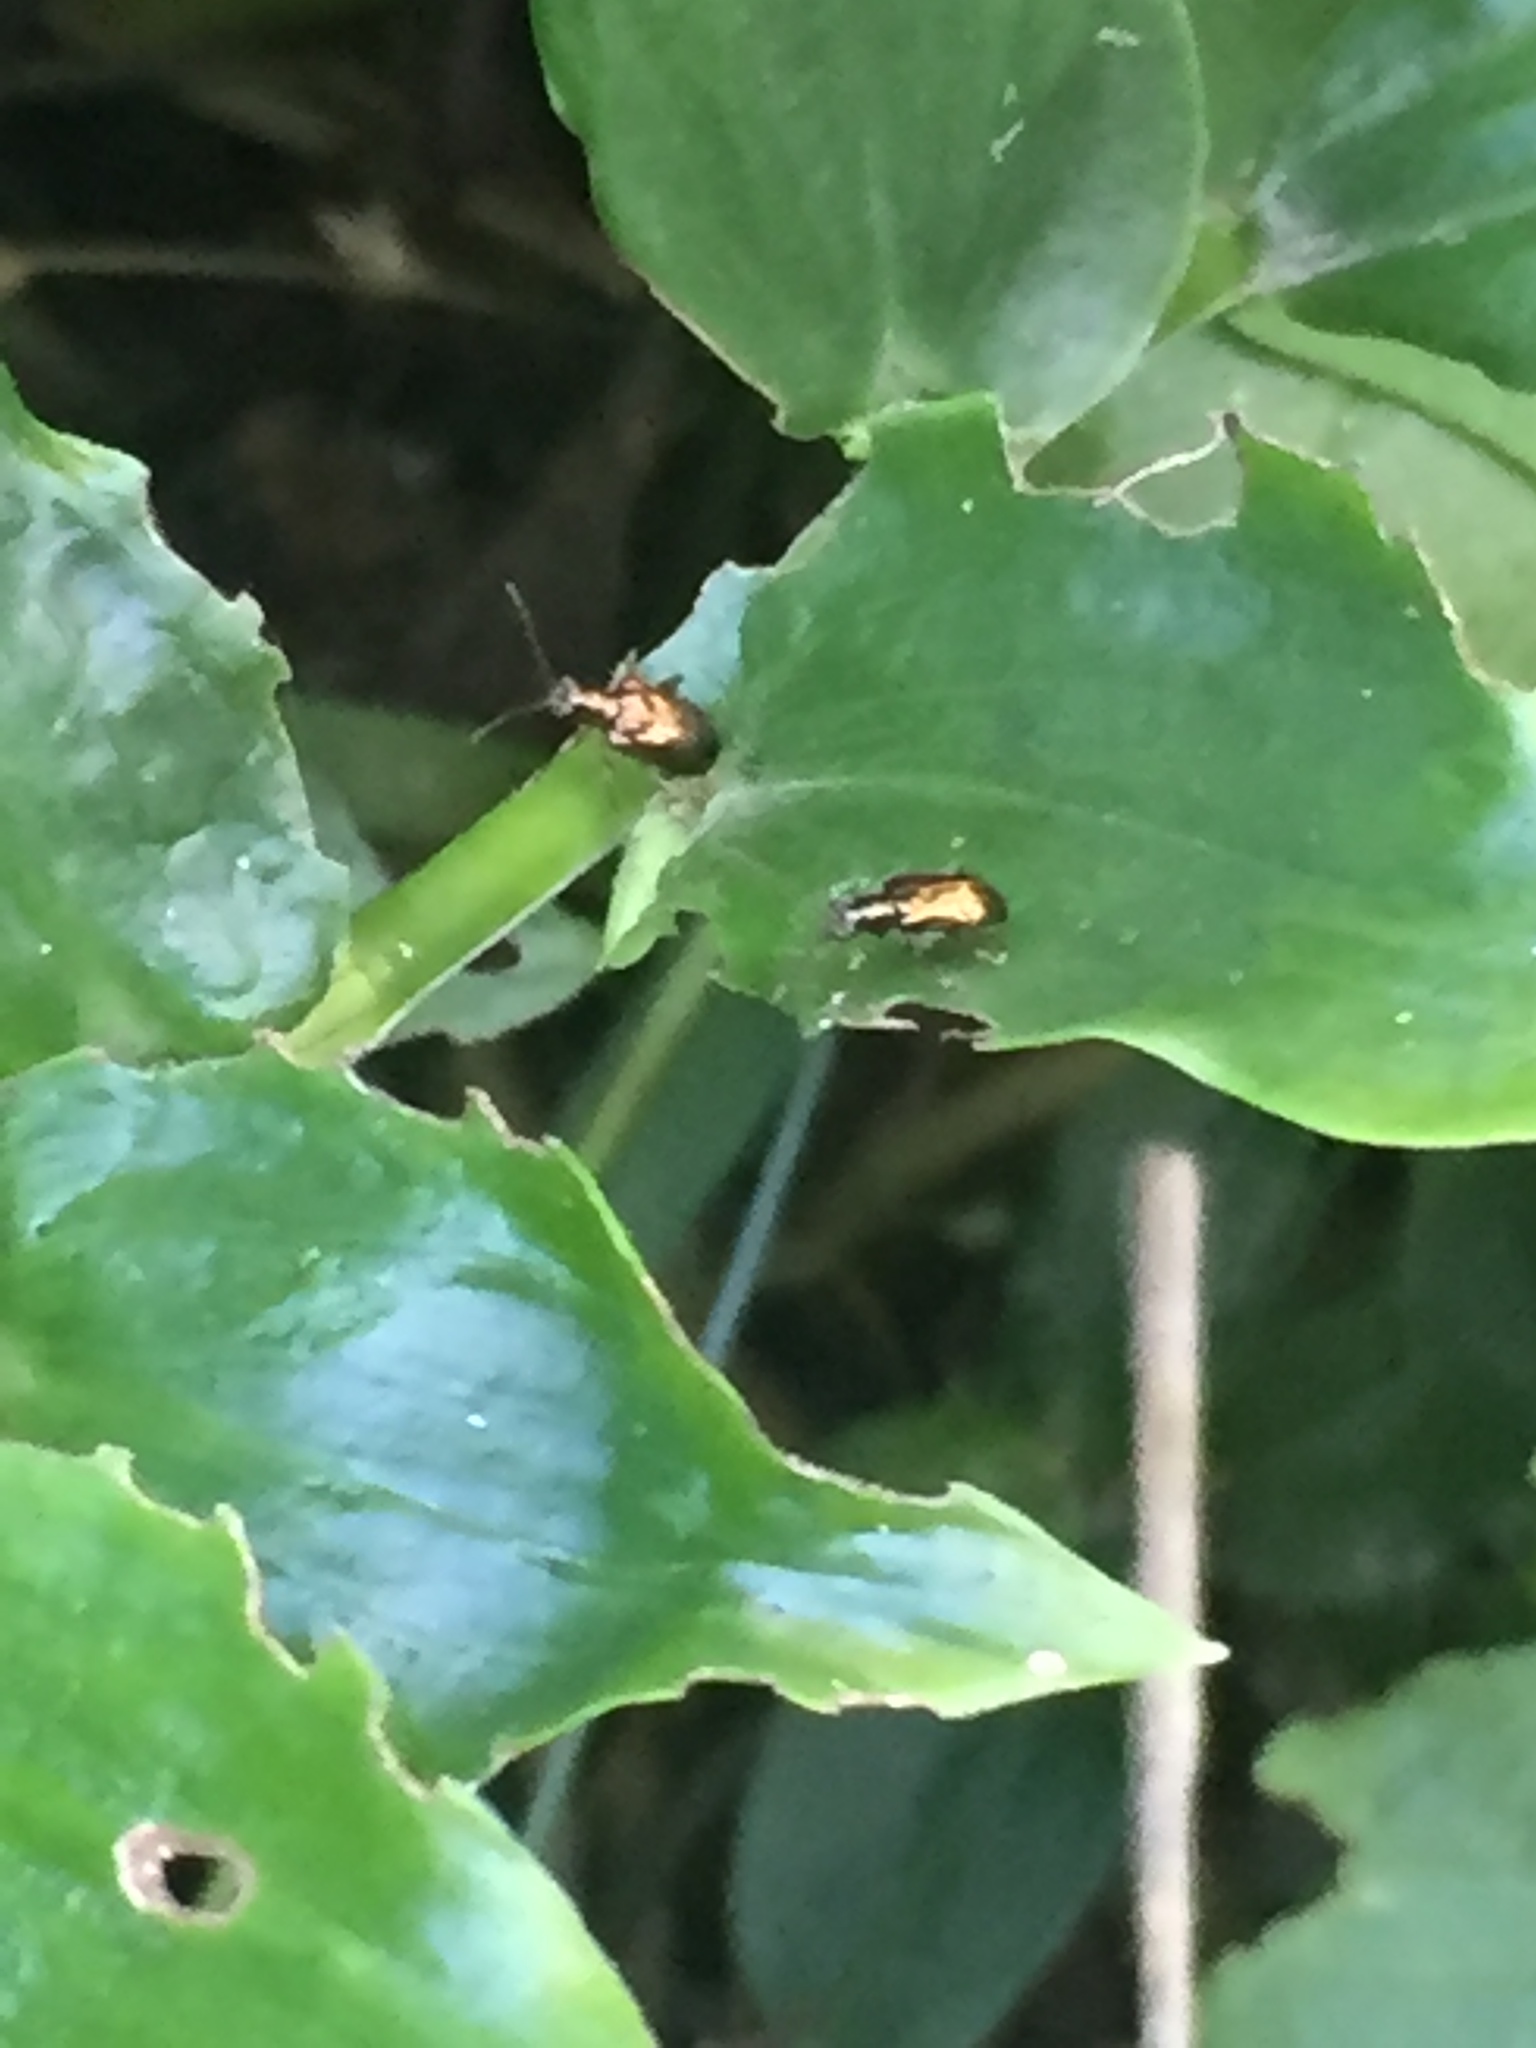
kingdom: Animalia
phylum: Arthropoda
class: Insecta
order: Coleoptera
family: Chrysomelidae
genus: Neolema
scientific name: Neolema ogloblini
